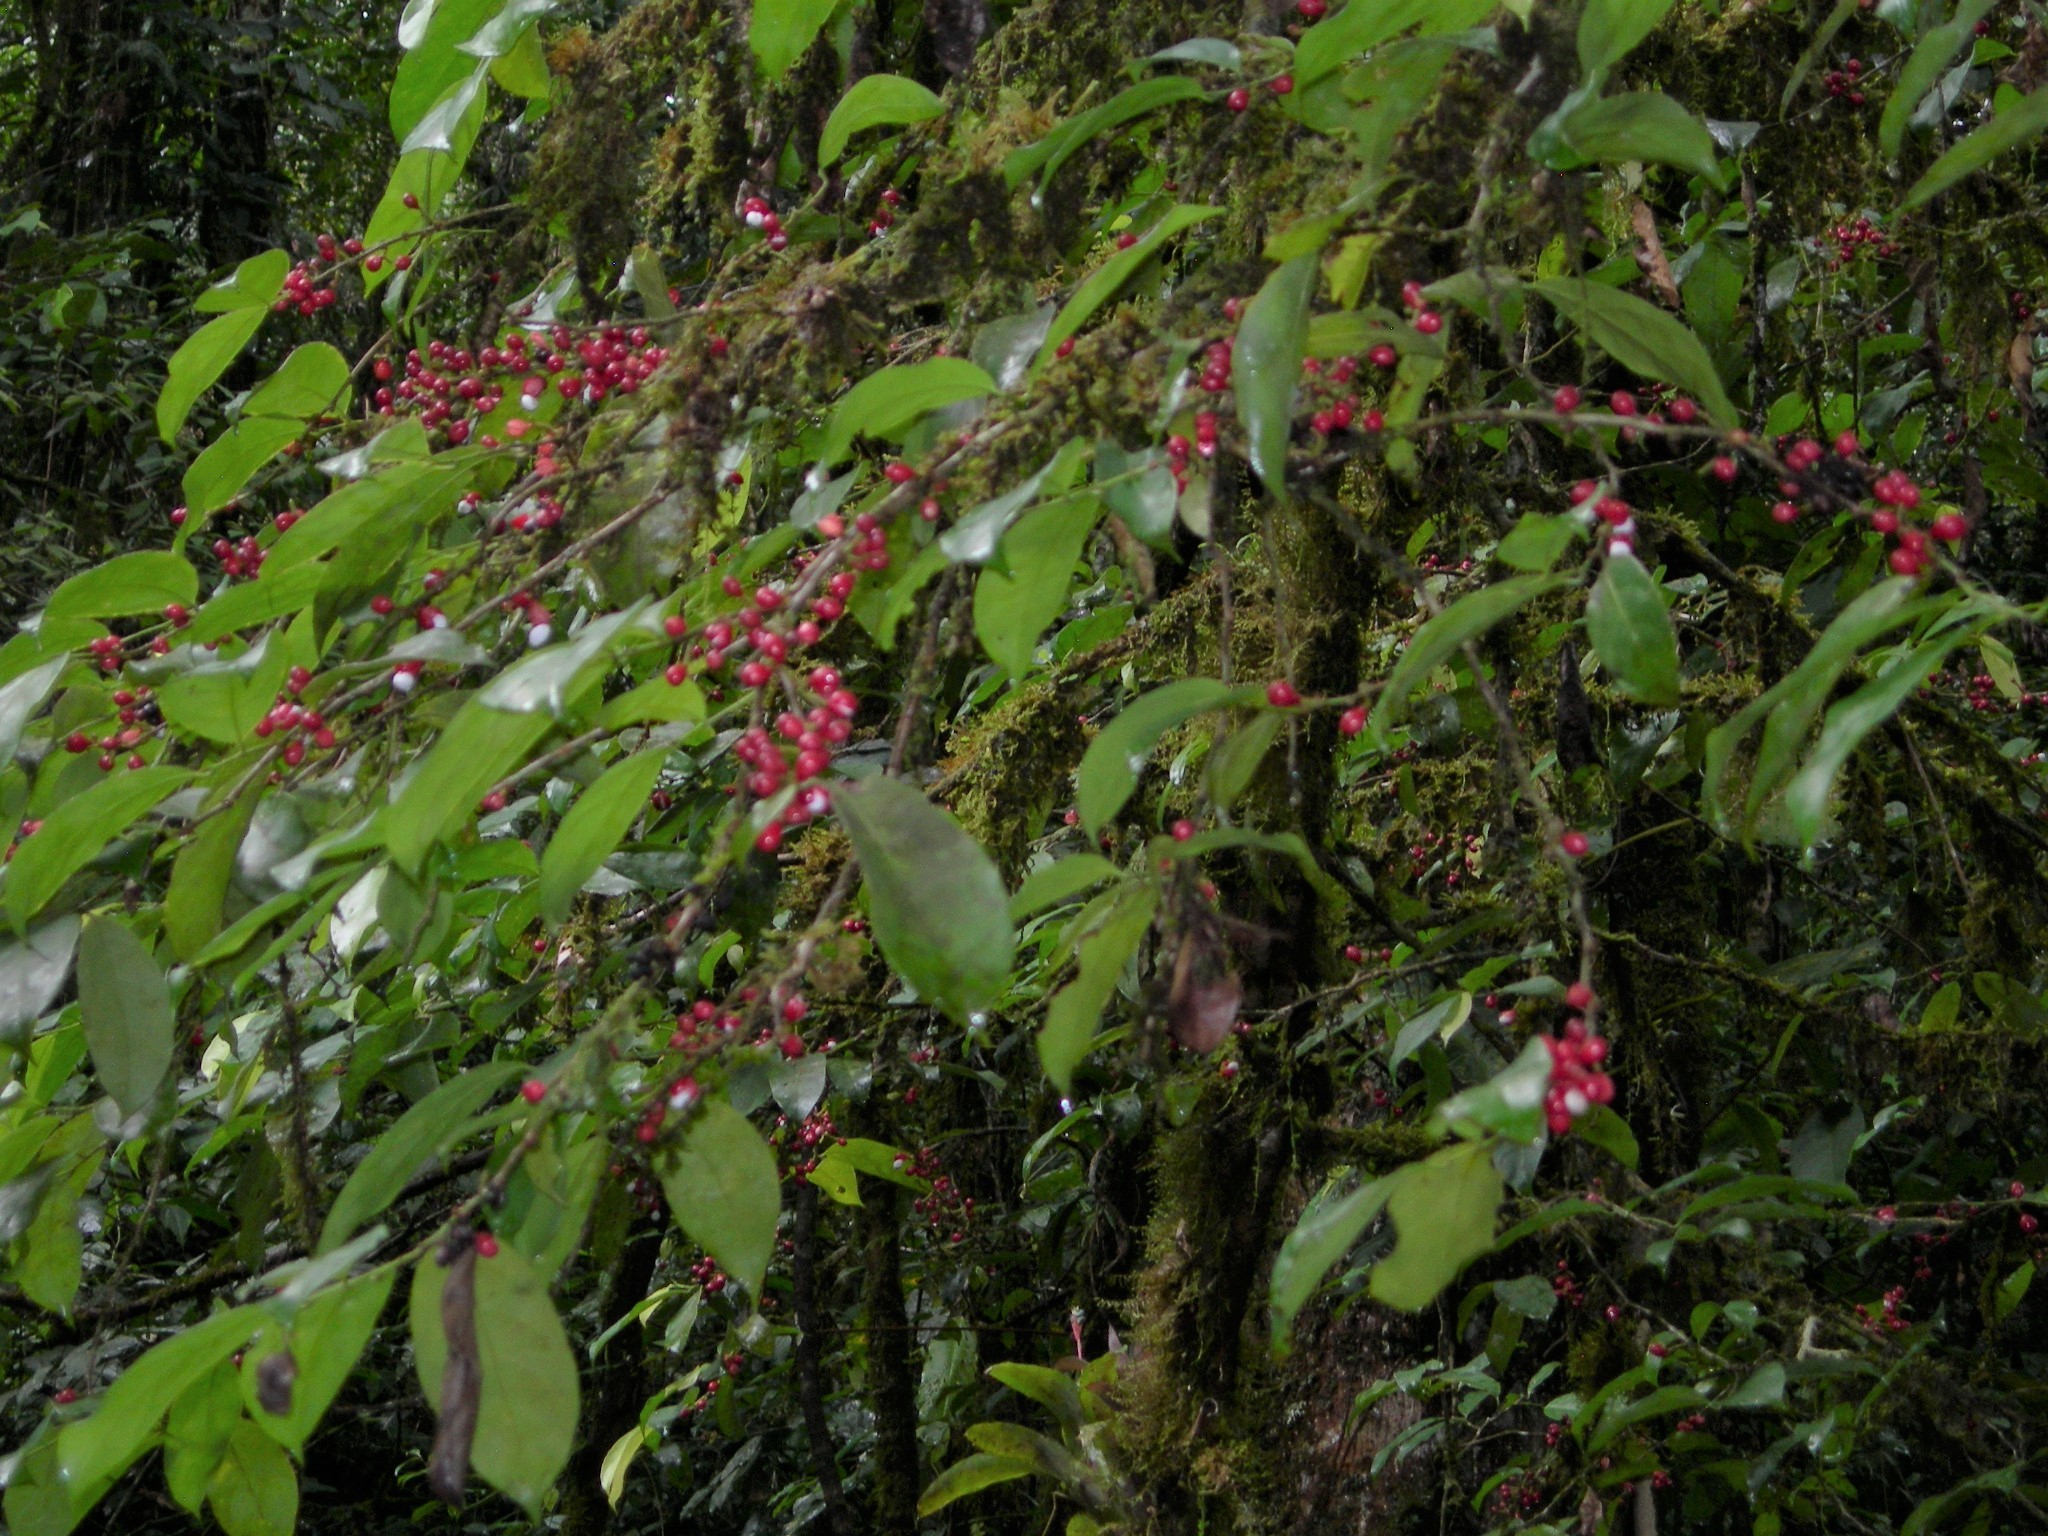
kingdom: Plantae
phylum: Tracheophyta
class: Magnoliopsida
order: Malpighiales
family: Lacistemataceae
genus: Lacistema
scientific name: Lacistema aggregatum
